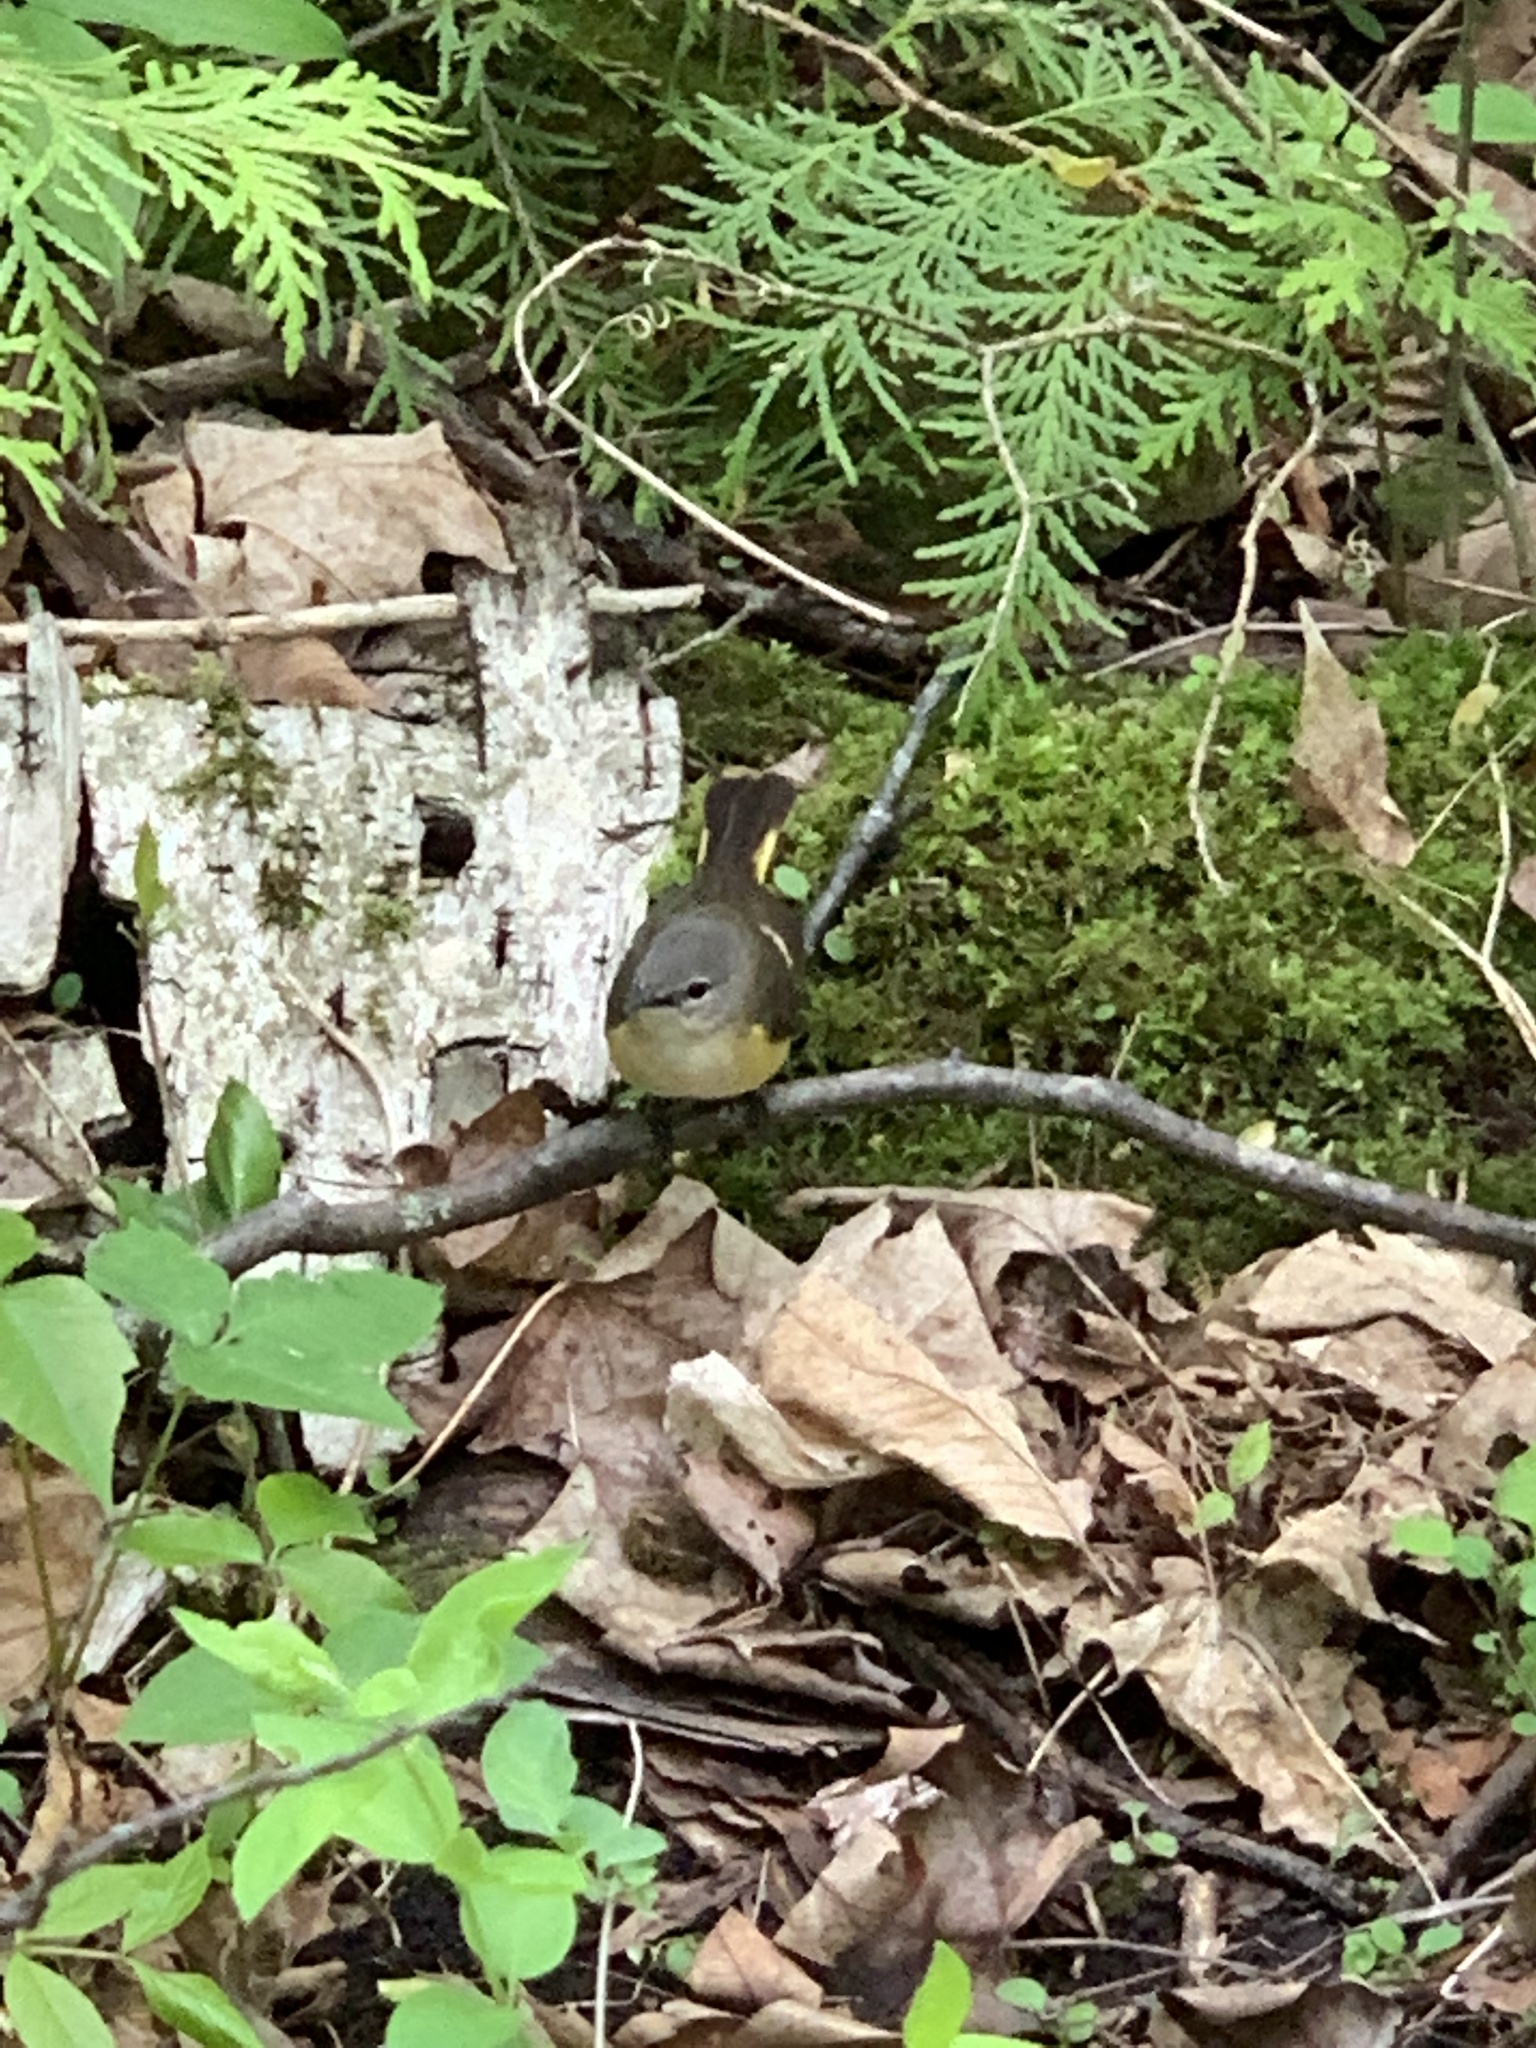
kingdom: Animalia
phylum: Chordata
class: Aves
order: Passeriformes
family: Parulidae
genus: Setophaga
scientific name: Setophaga ruticilla
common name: American redstart
